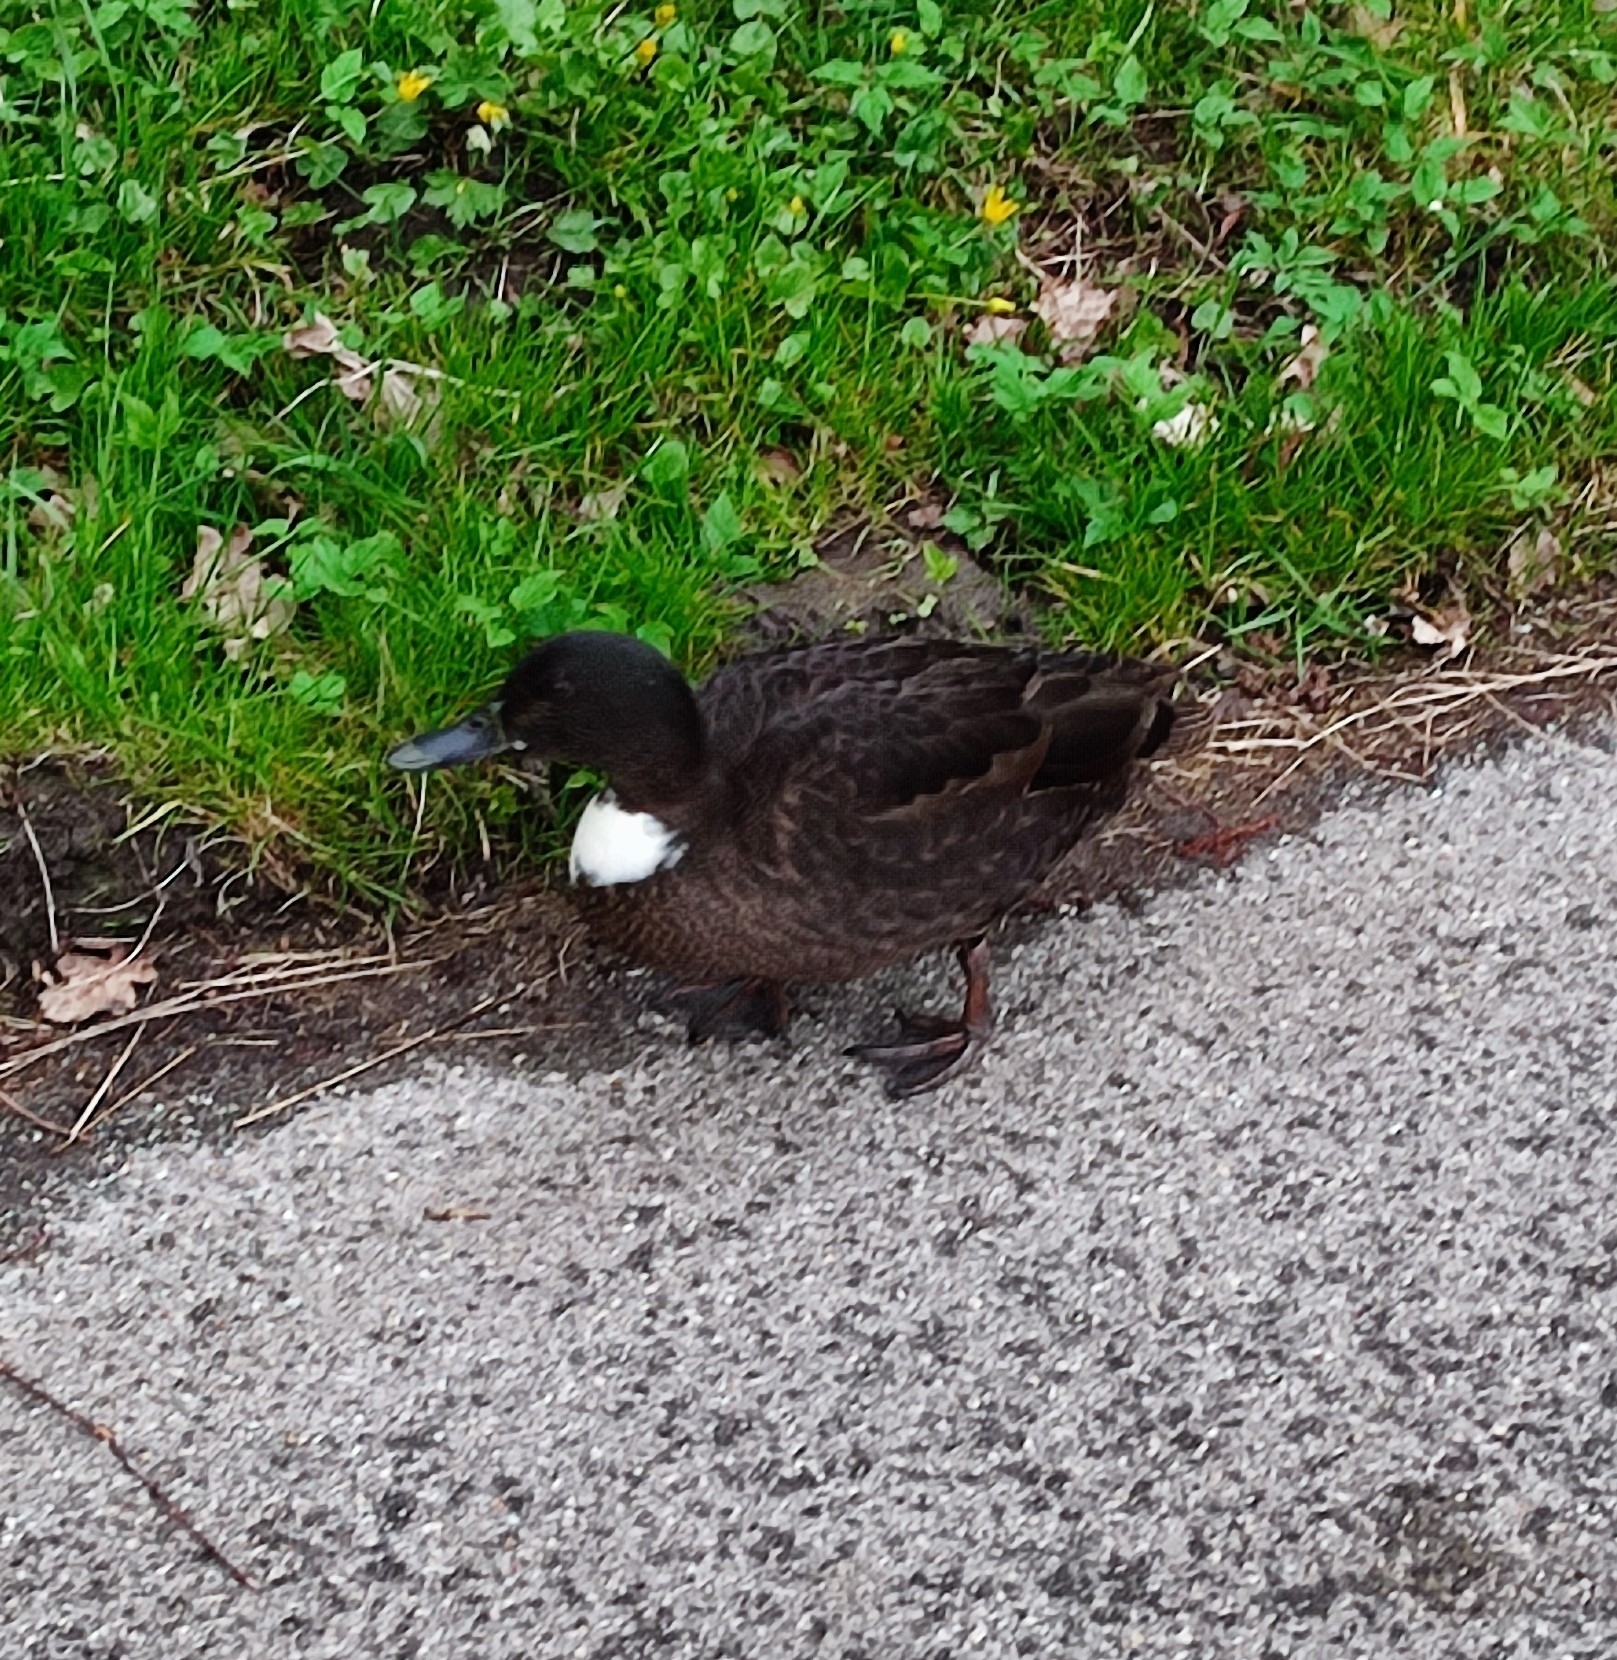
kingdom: Animalia
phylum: Chordata
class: Aves
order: Anseriformes
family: Anatidae
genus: Anas
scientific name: Anas platyrhynchos
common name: Mallard
